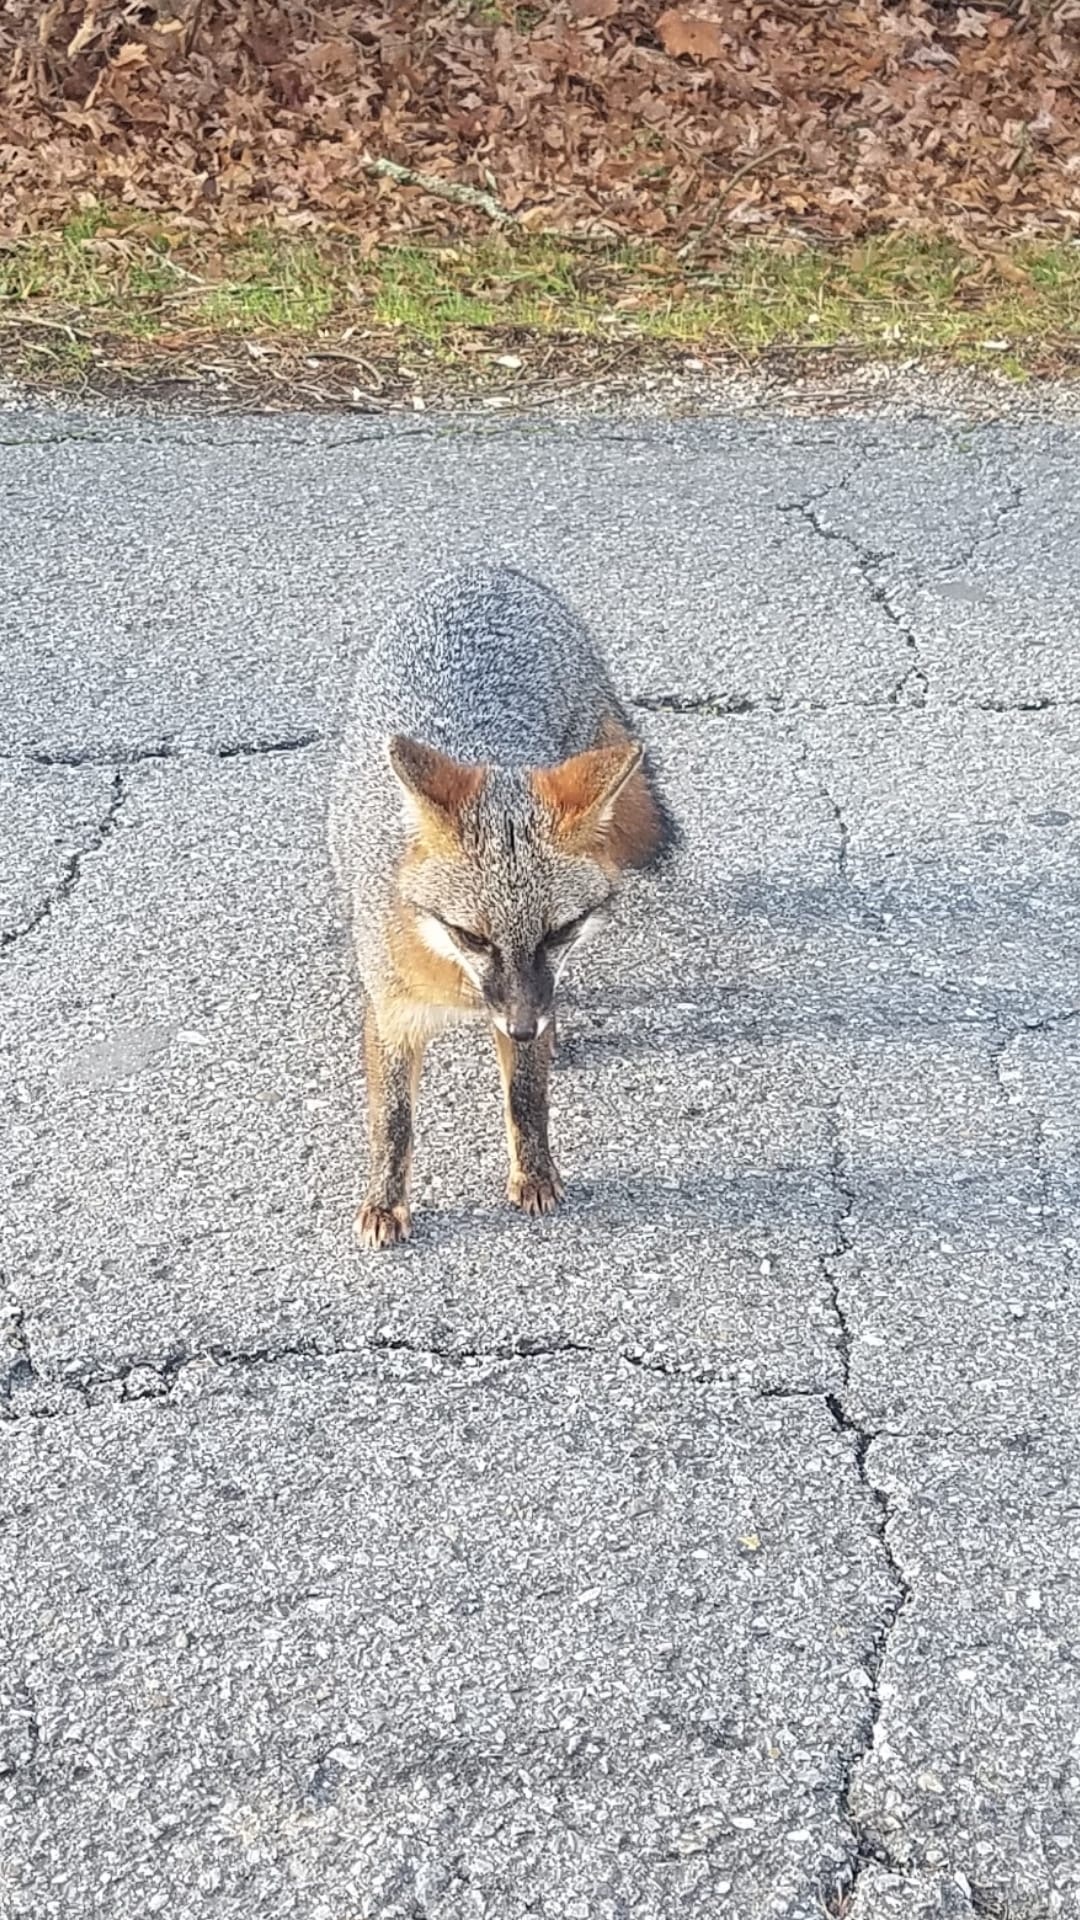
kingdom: Animalia
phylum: Chordata
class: Mammalia
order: Carnivora
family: Canidae
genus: Urocyon
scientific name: Urocyon cinereoargenteus
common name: Gray fox
